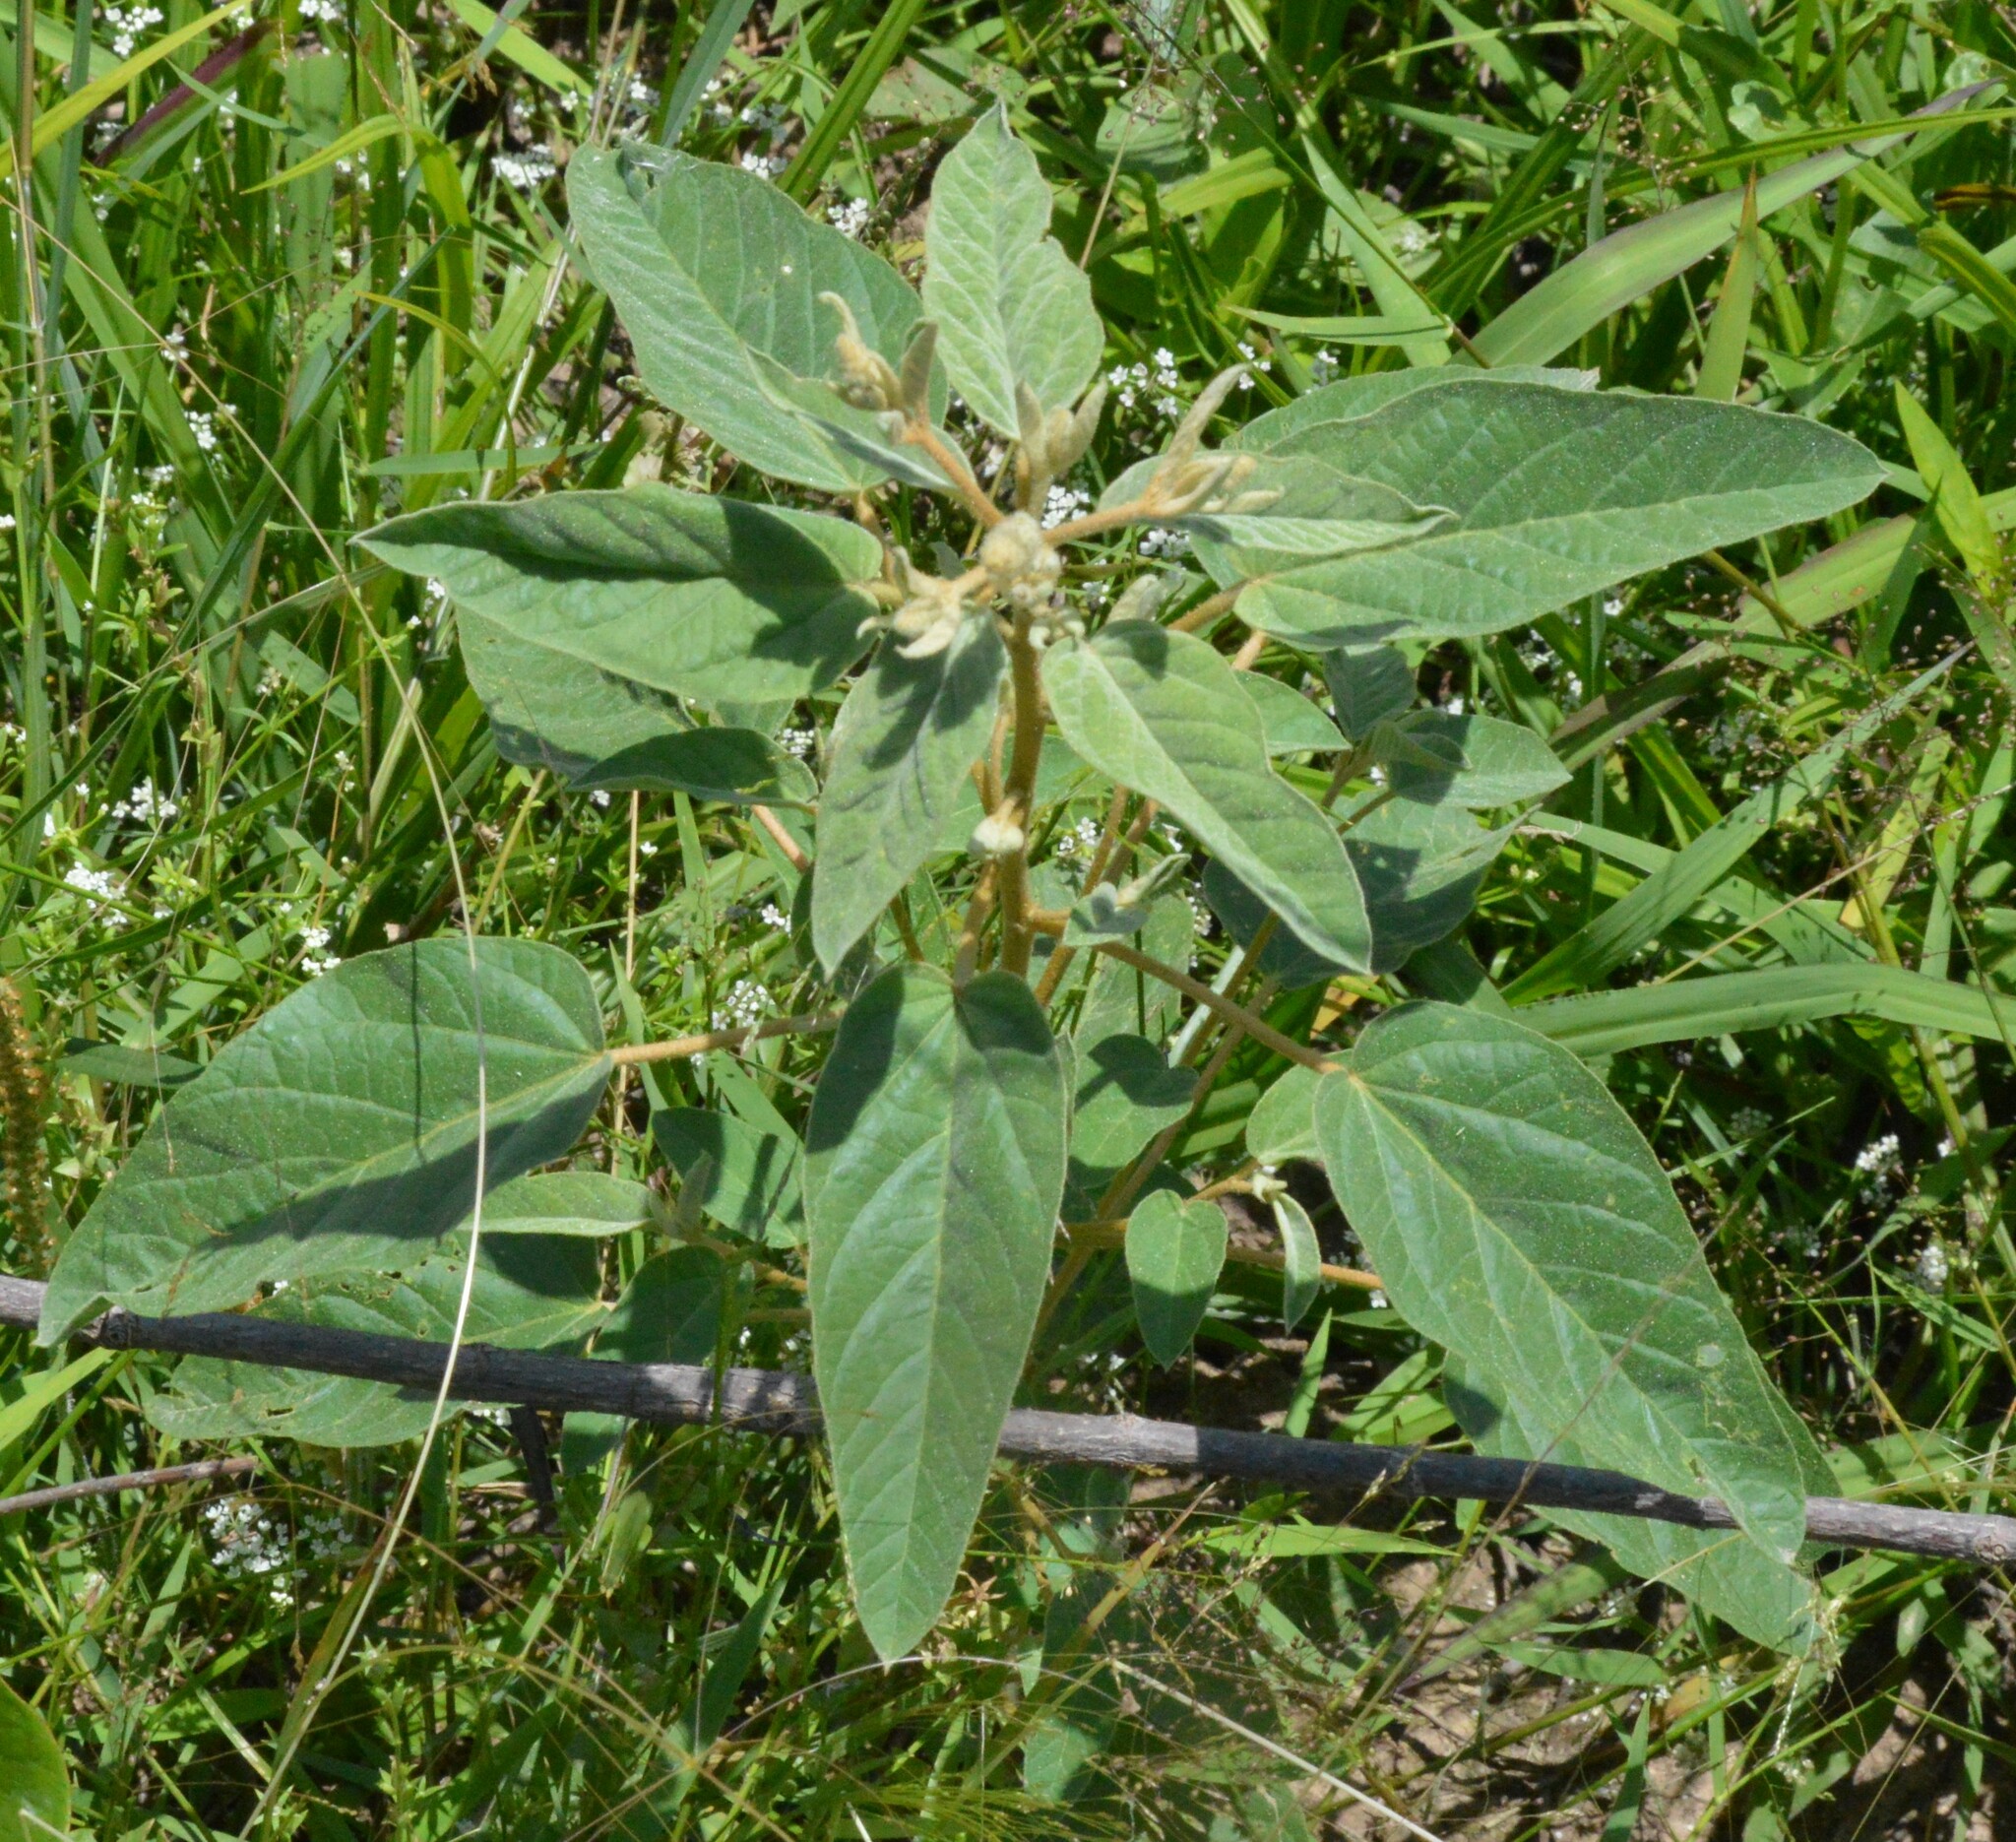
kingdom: Plantae
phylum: Tracheophyta
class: Magnoliopsida
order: Malpighiales
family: Euphorbiaceae
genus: Croton
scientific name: Croton lindheimeri
